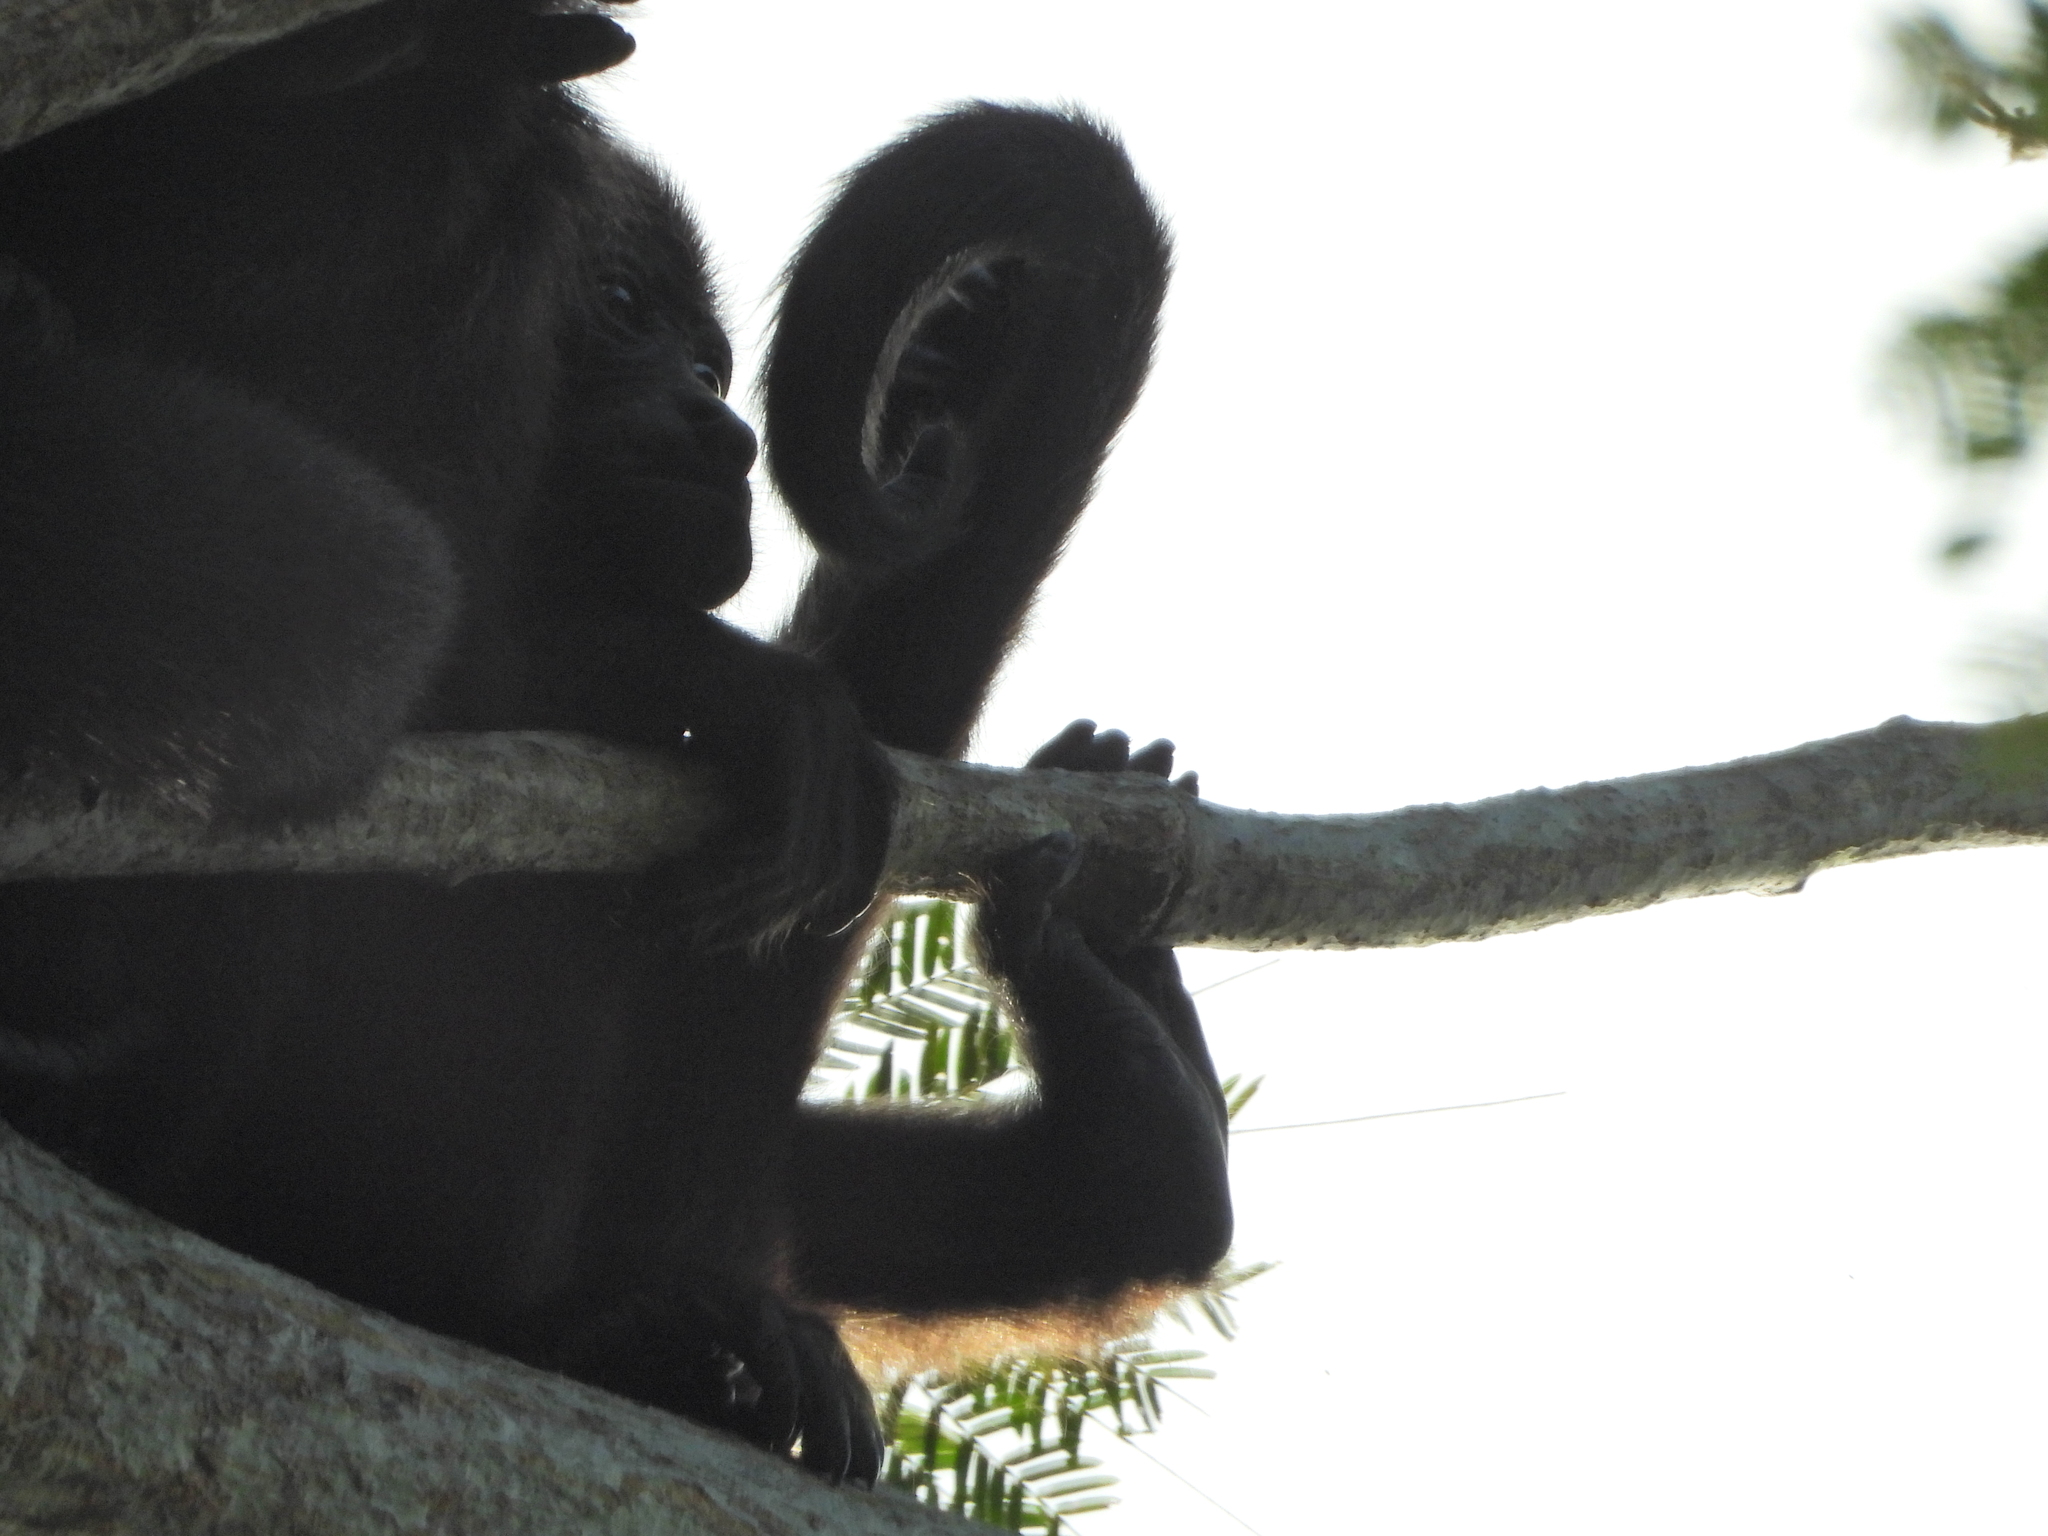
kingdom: Animalia
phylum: Chordata
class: Mammalia
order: Primates
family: Atelidae
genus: Alouatta
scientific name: Alouatta palliata
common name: Mantled howler
